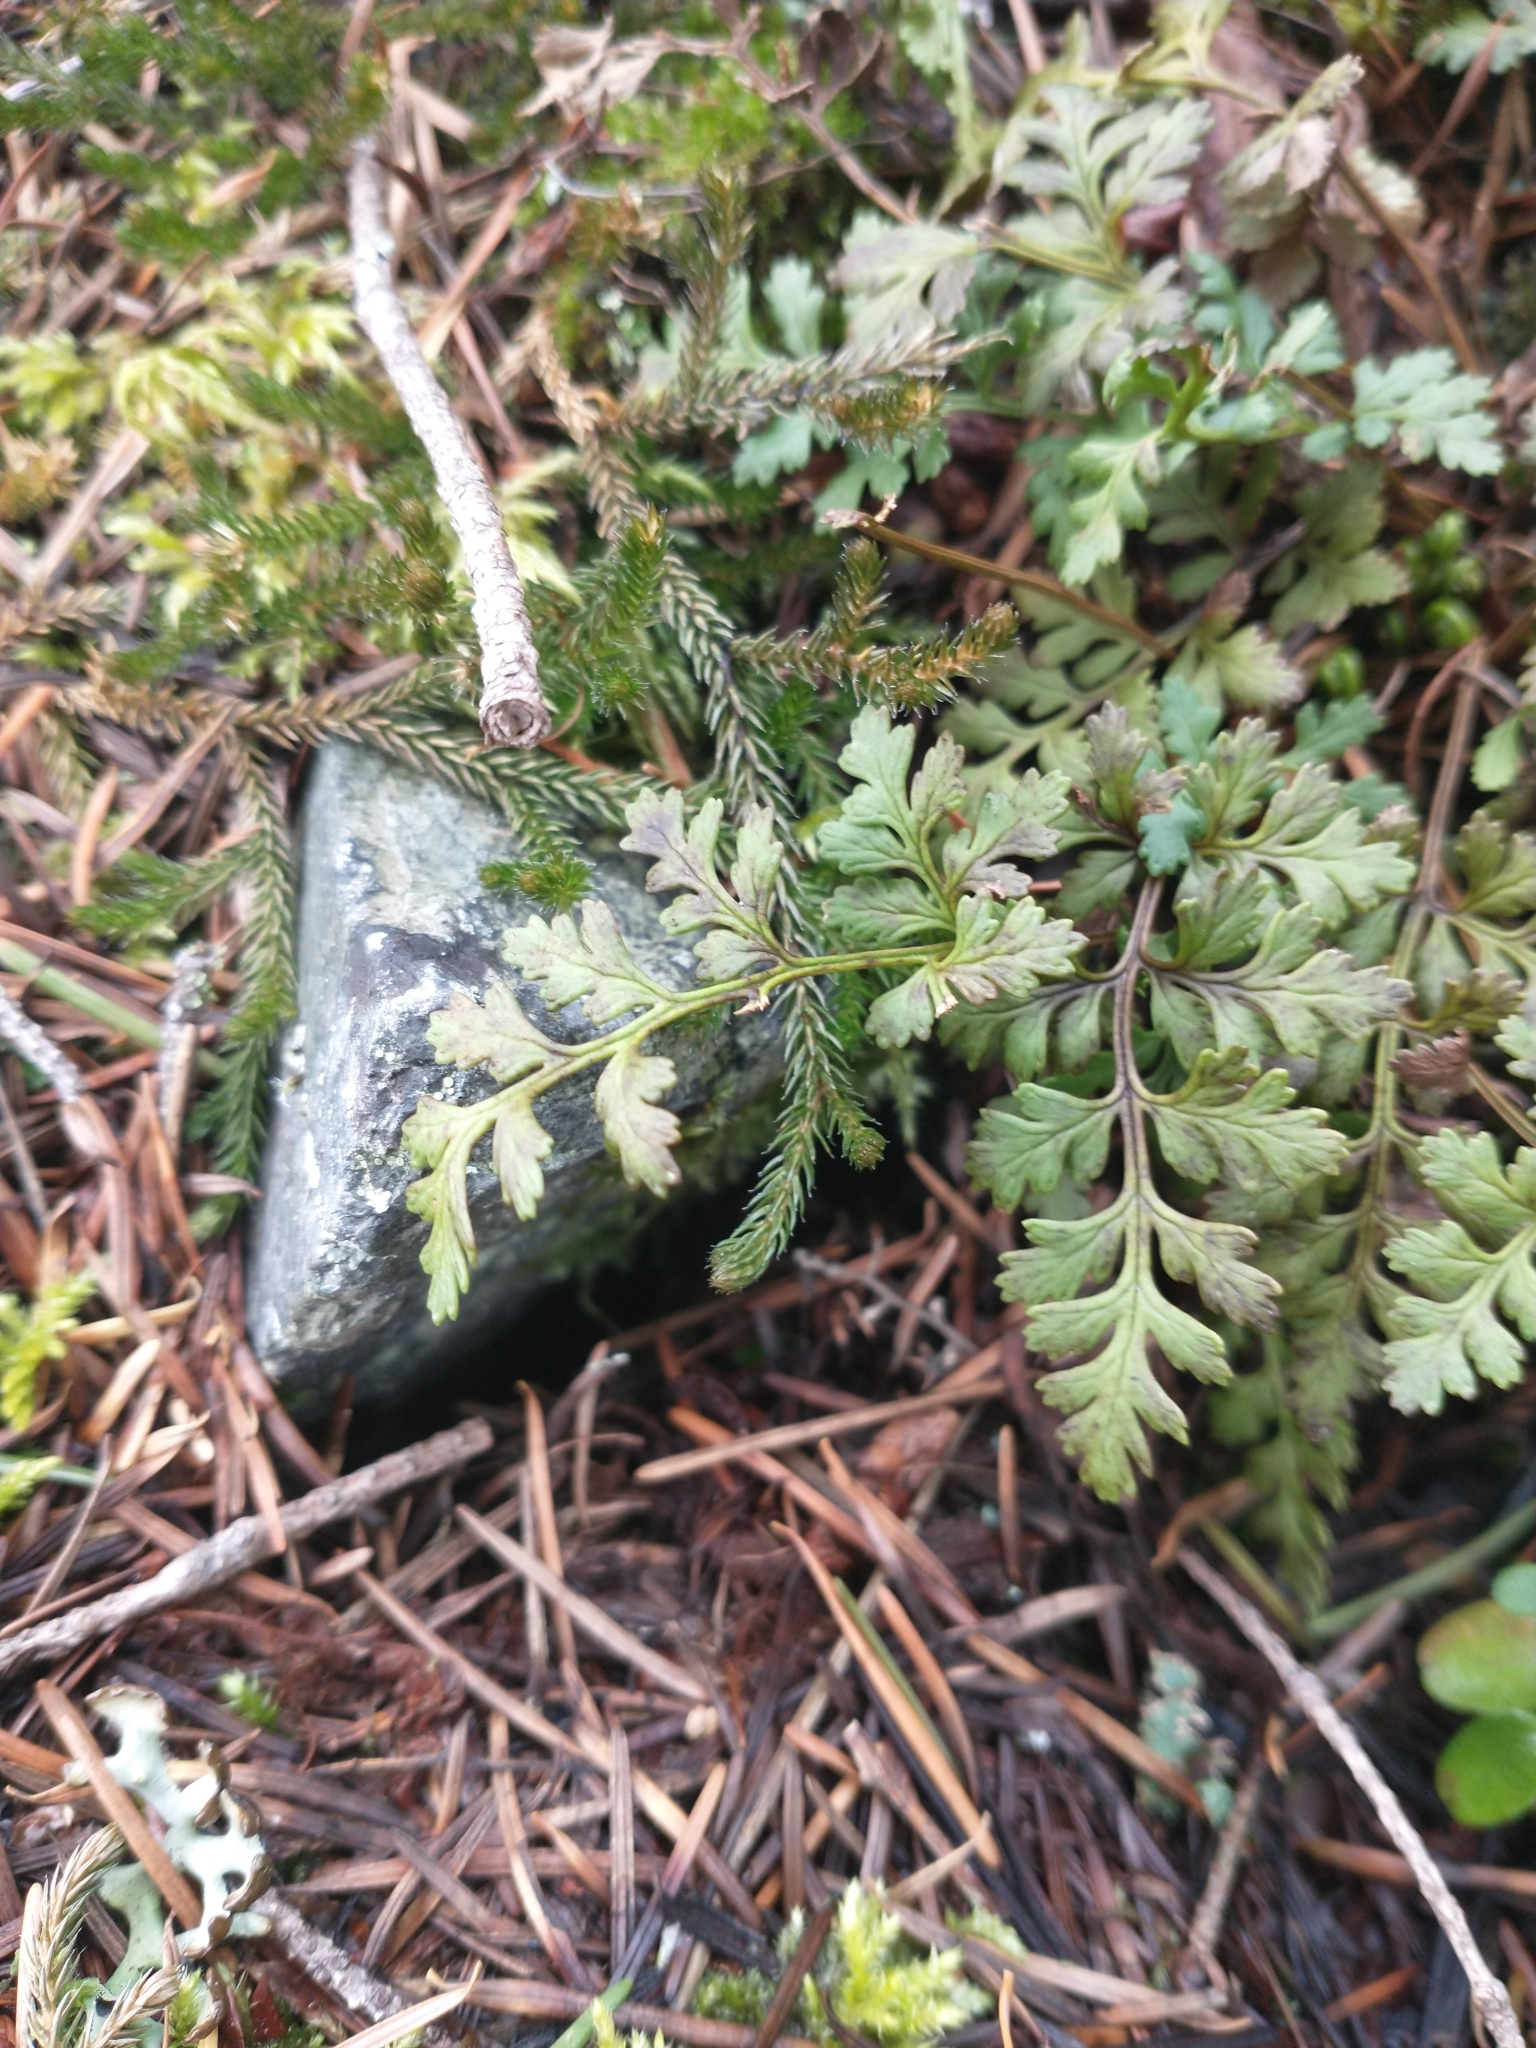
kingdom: Plantae
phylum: Tracheophyta
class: Lycopodiopsida
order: Selaginellales
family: Selaginellaceae
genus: Selaginella
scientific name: Selaginella wallacei
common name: Wallace's selaginella
